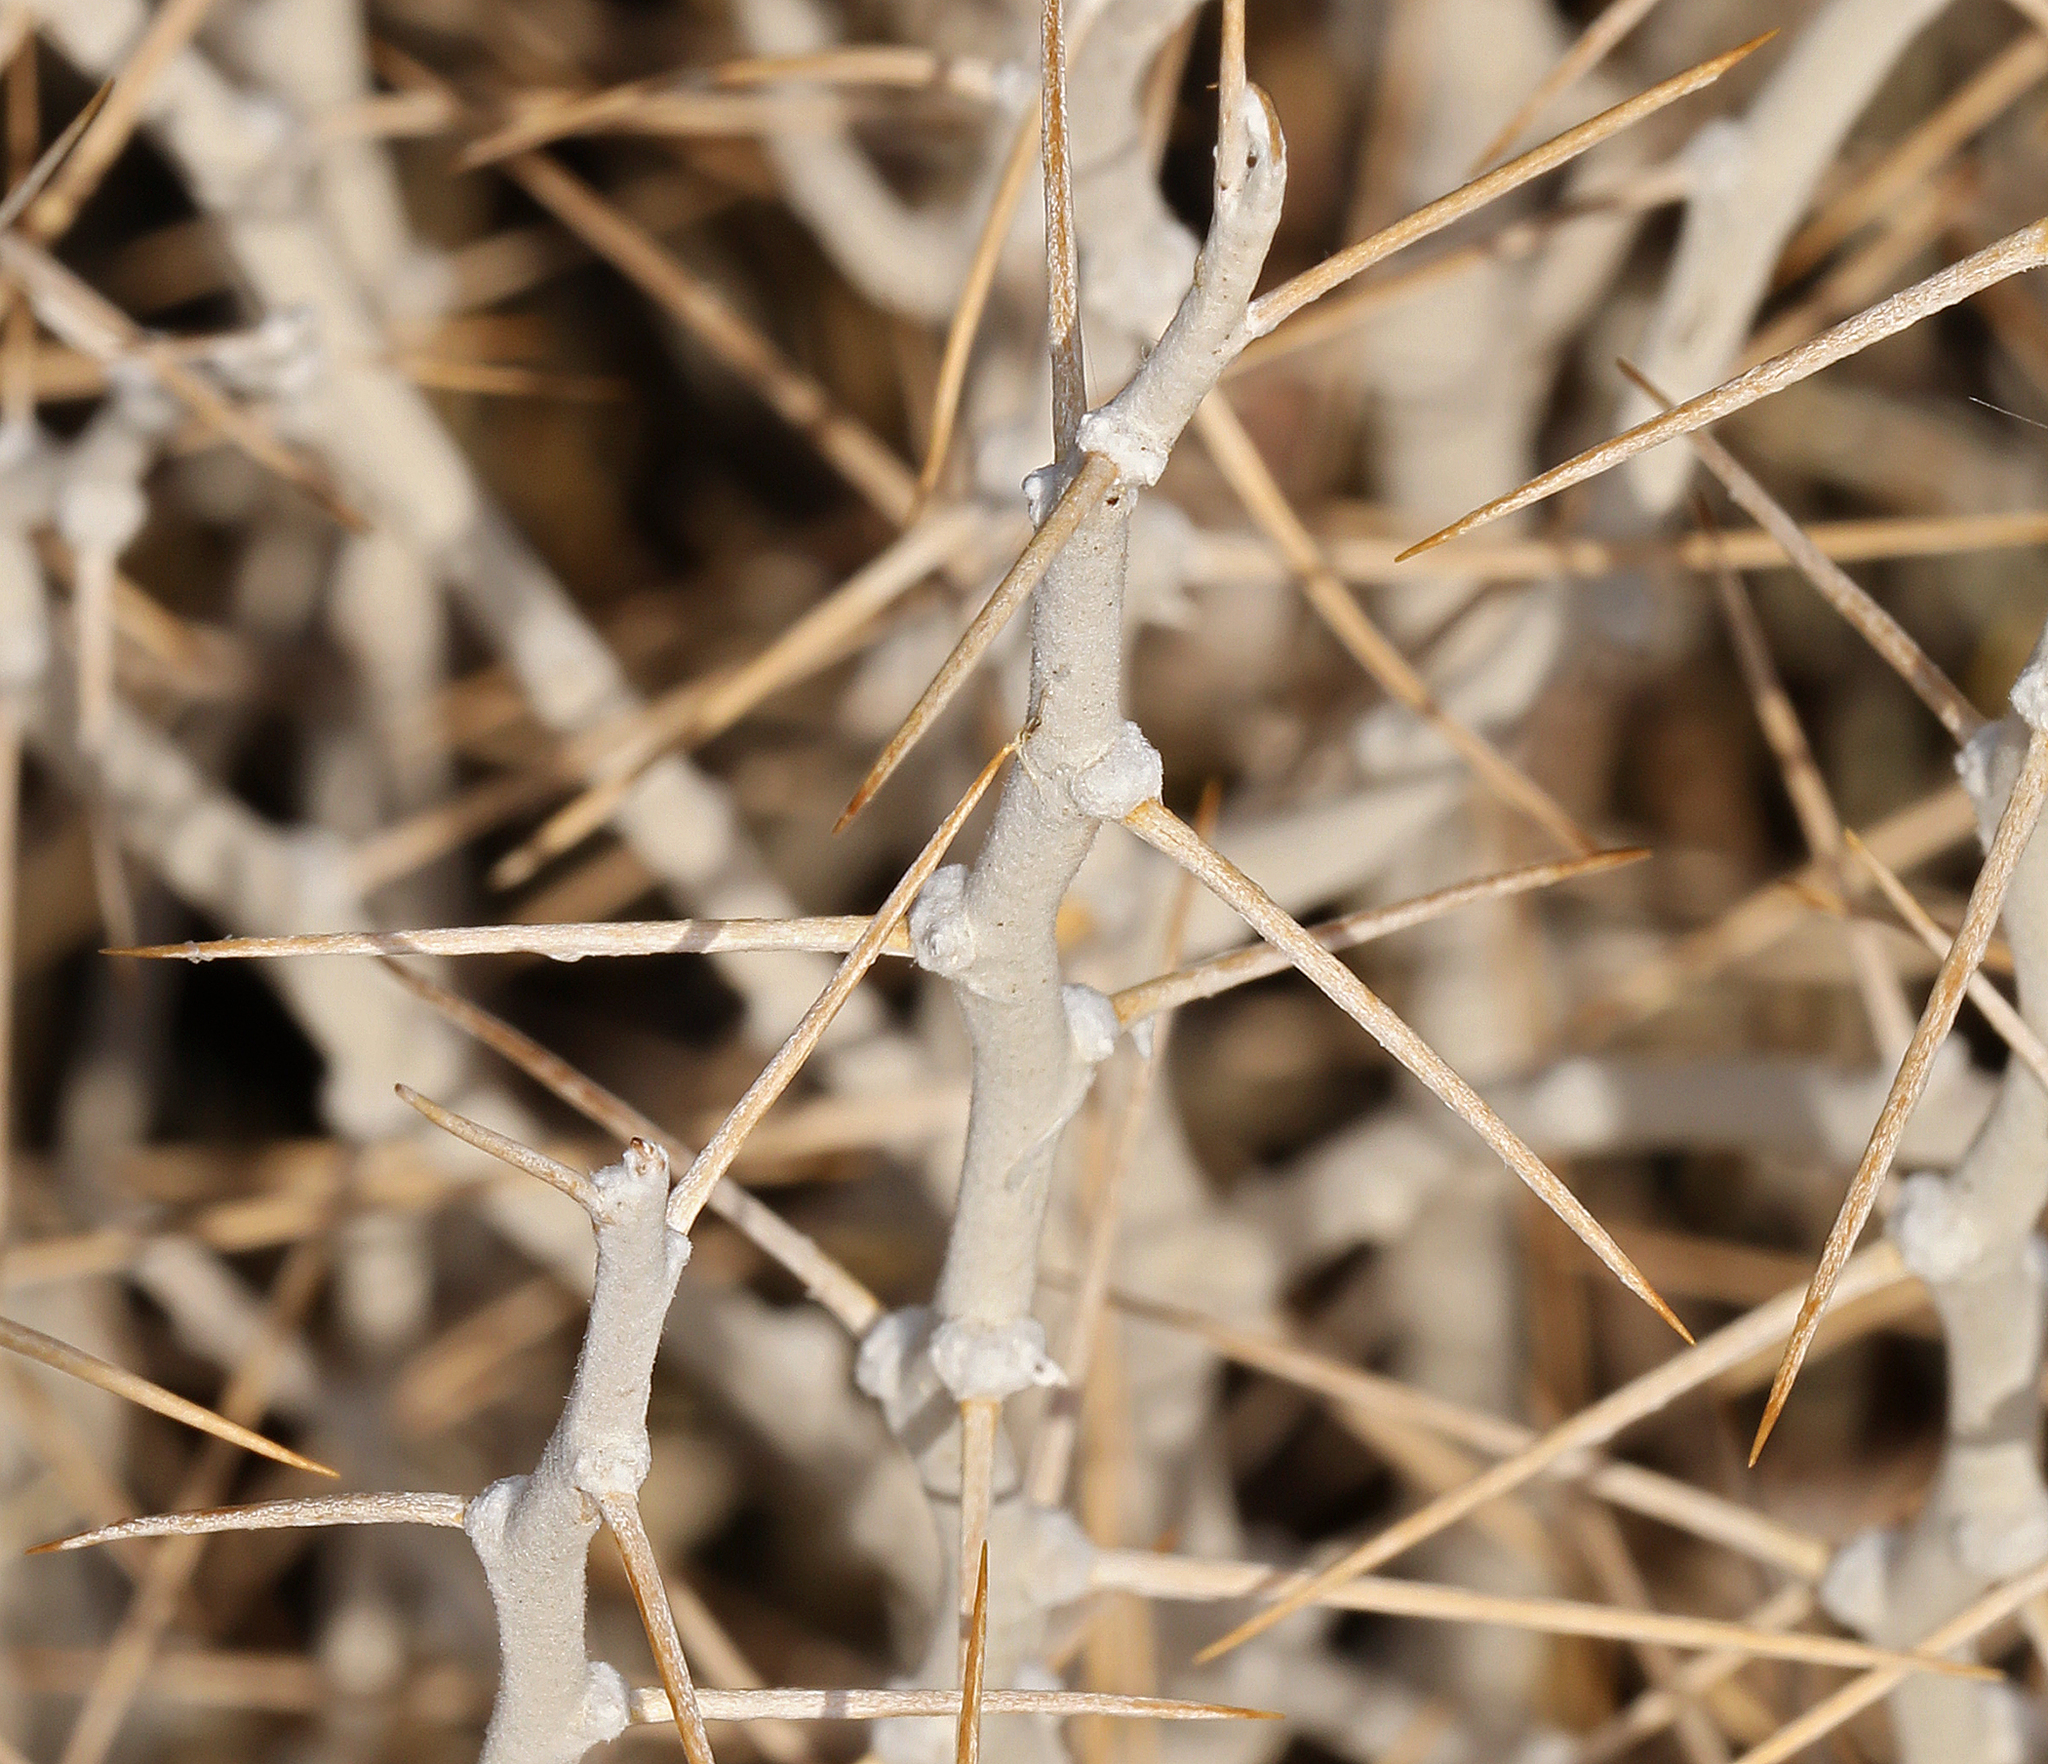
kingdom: Plantae
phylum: Tracheophyta
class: Magnoliopsida
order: Asterales
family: Asteraceae
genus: Tetradymia
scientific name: Tetradymia axillaris
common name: Long-spine horsebrush
